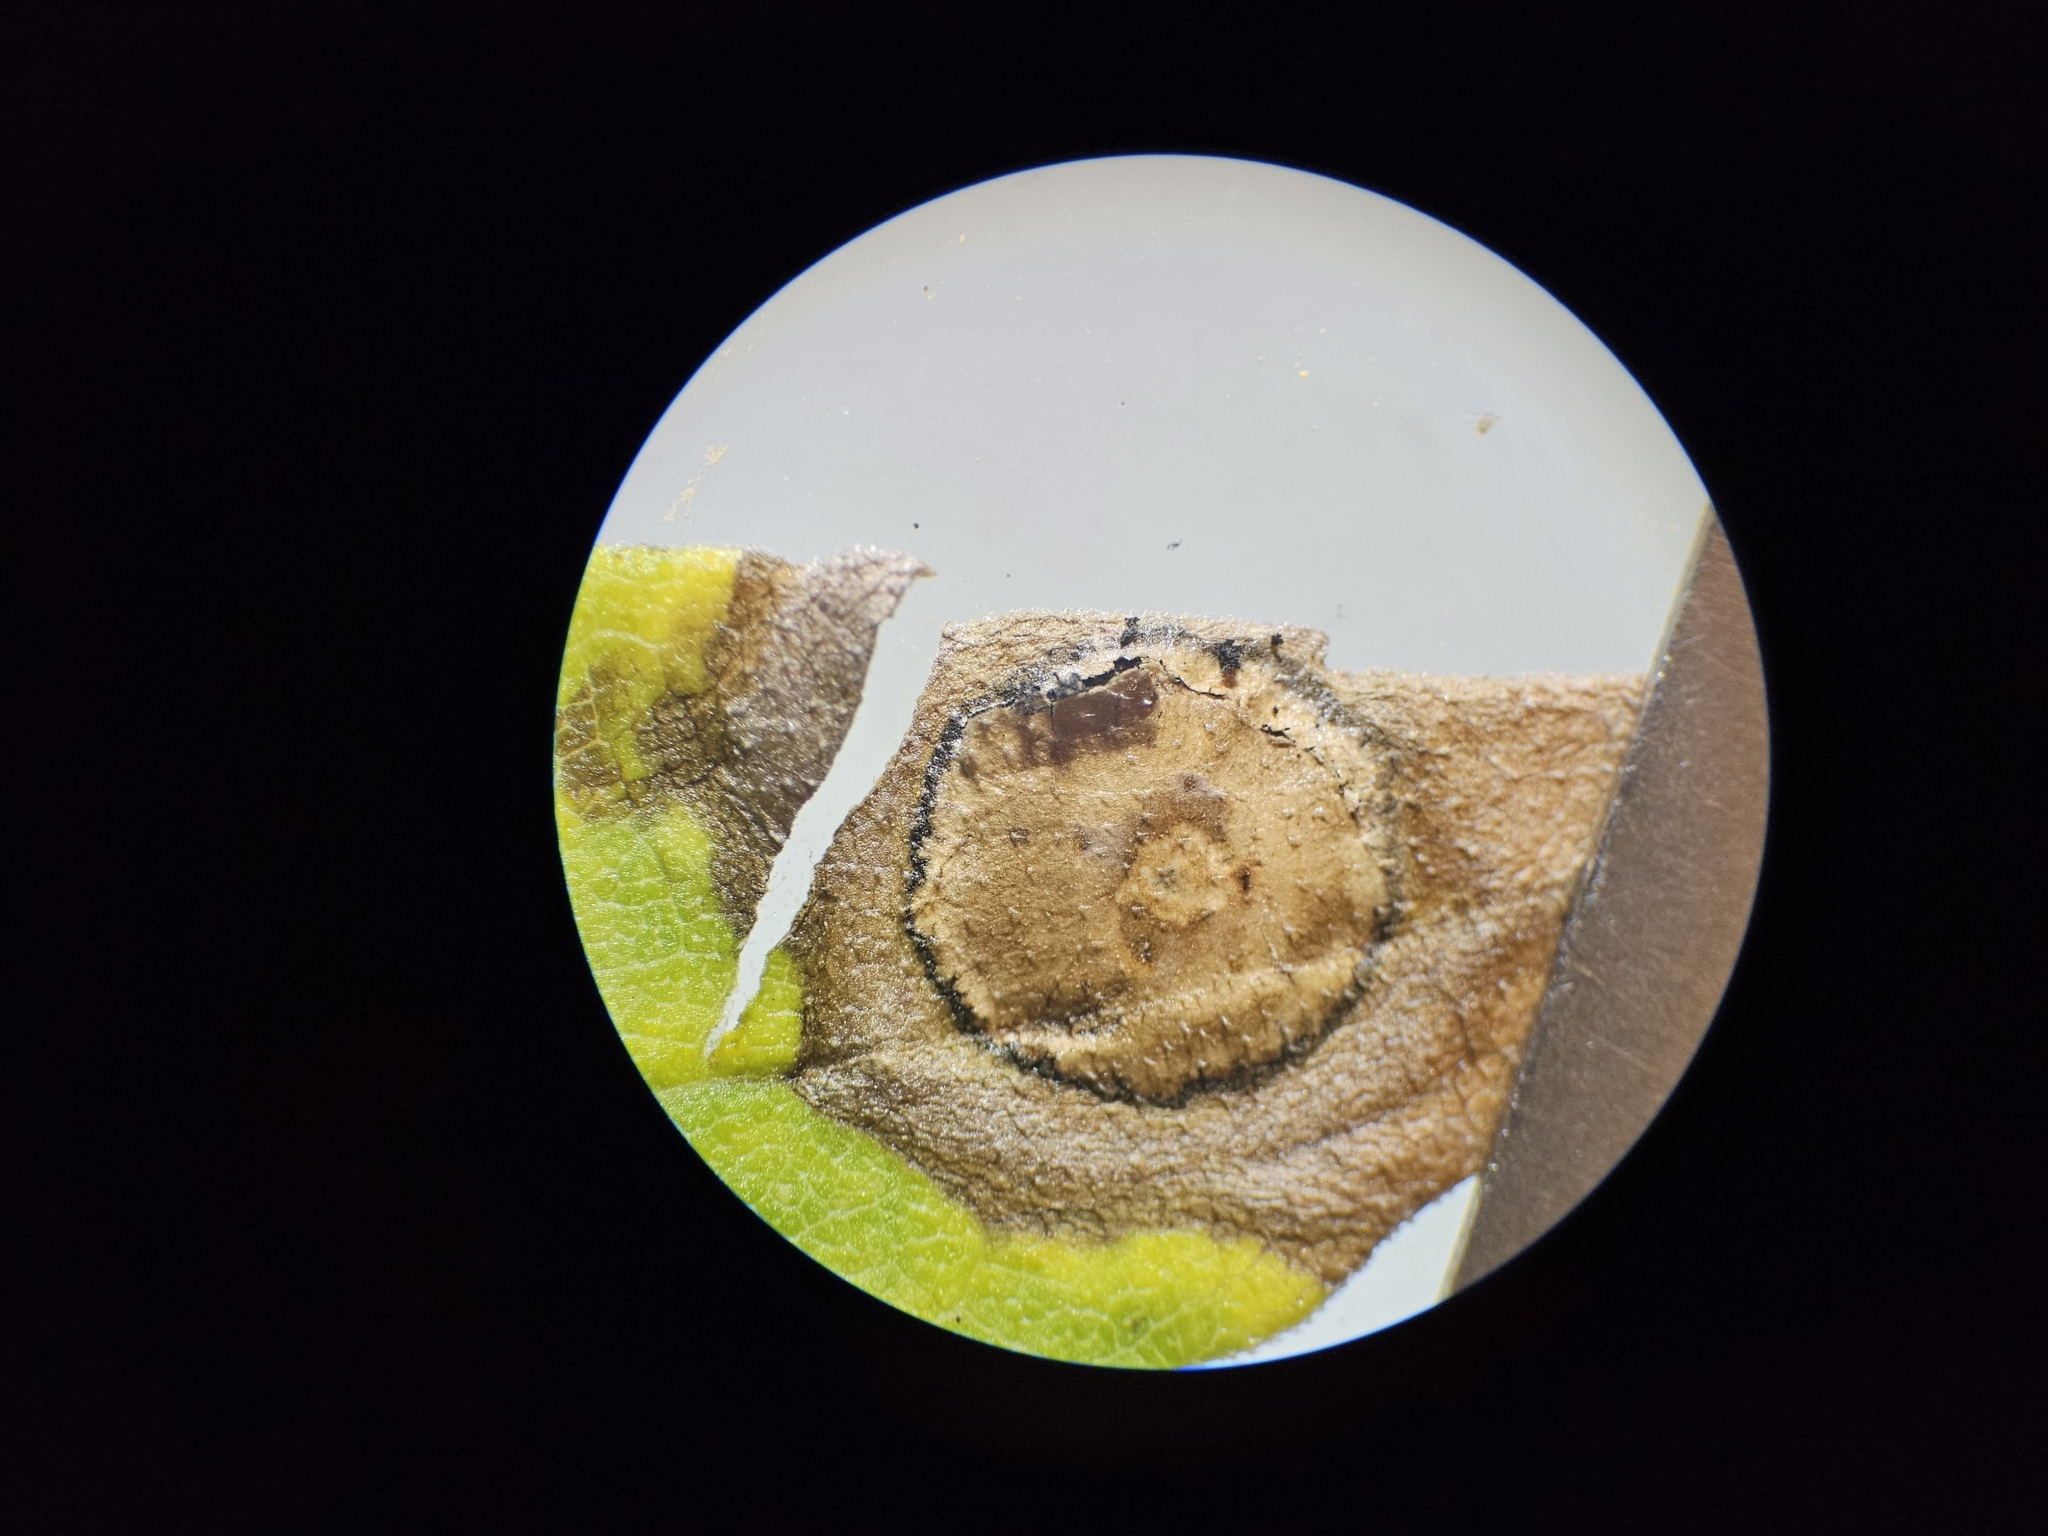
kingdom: Animalia
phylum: Arthropoda
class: Insecta
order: Diptera
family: Cecidomyiidae
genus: Asteromyia
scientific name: Asteromyia carbonifera
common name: Carbonifera goldenrod gall midge
